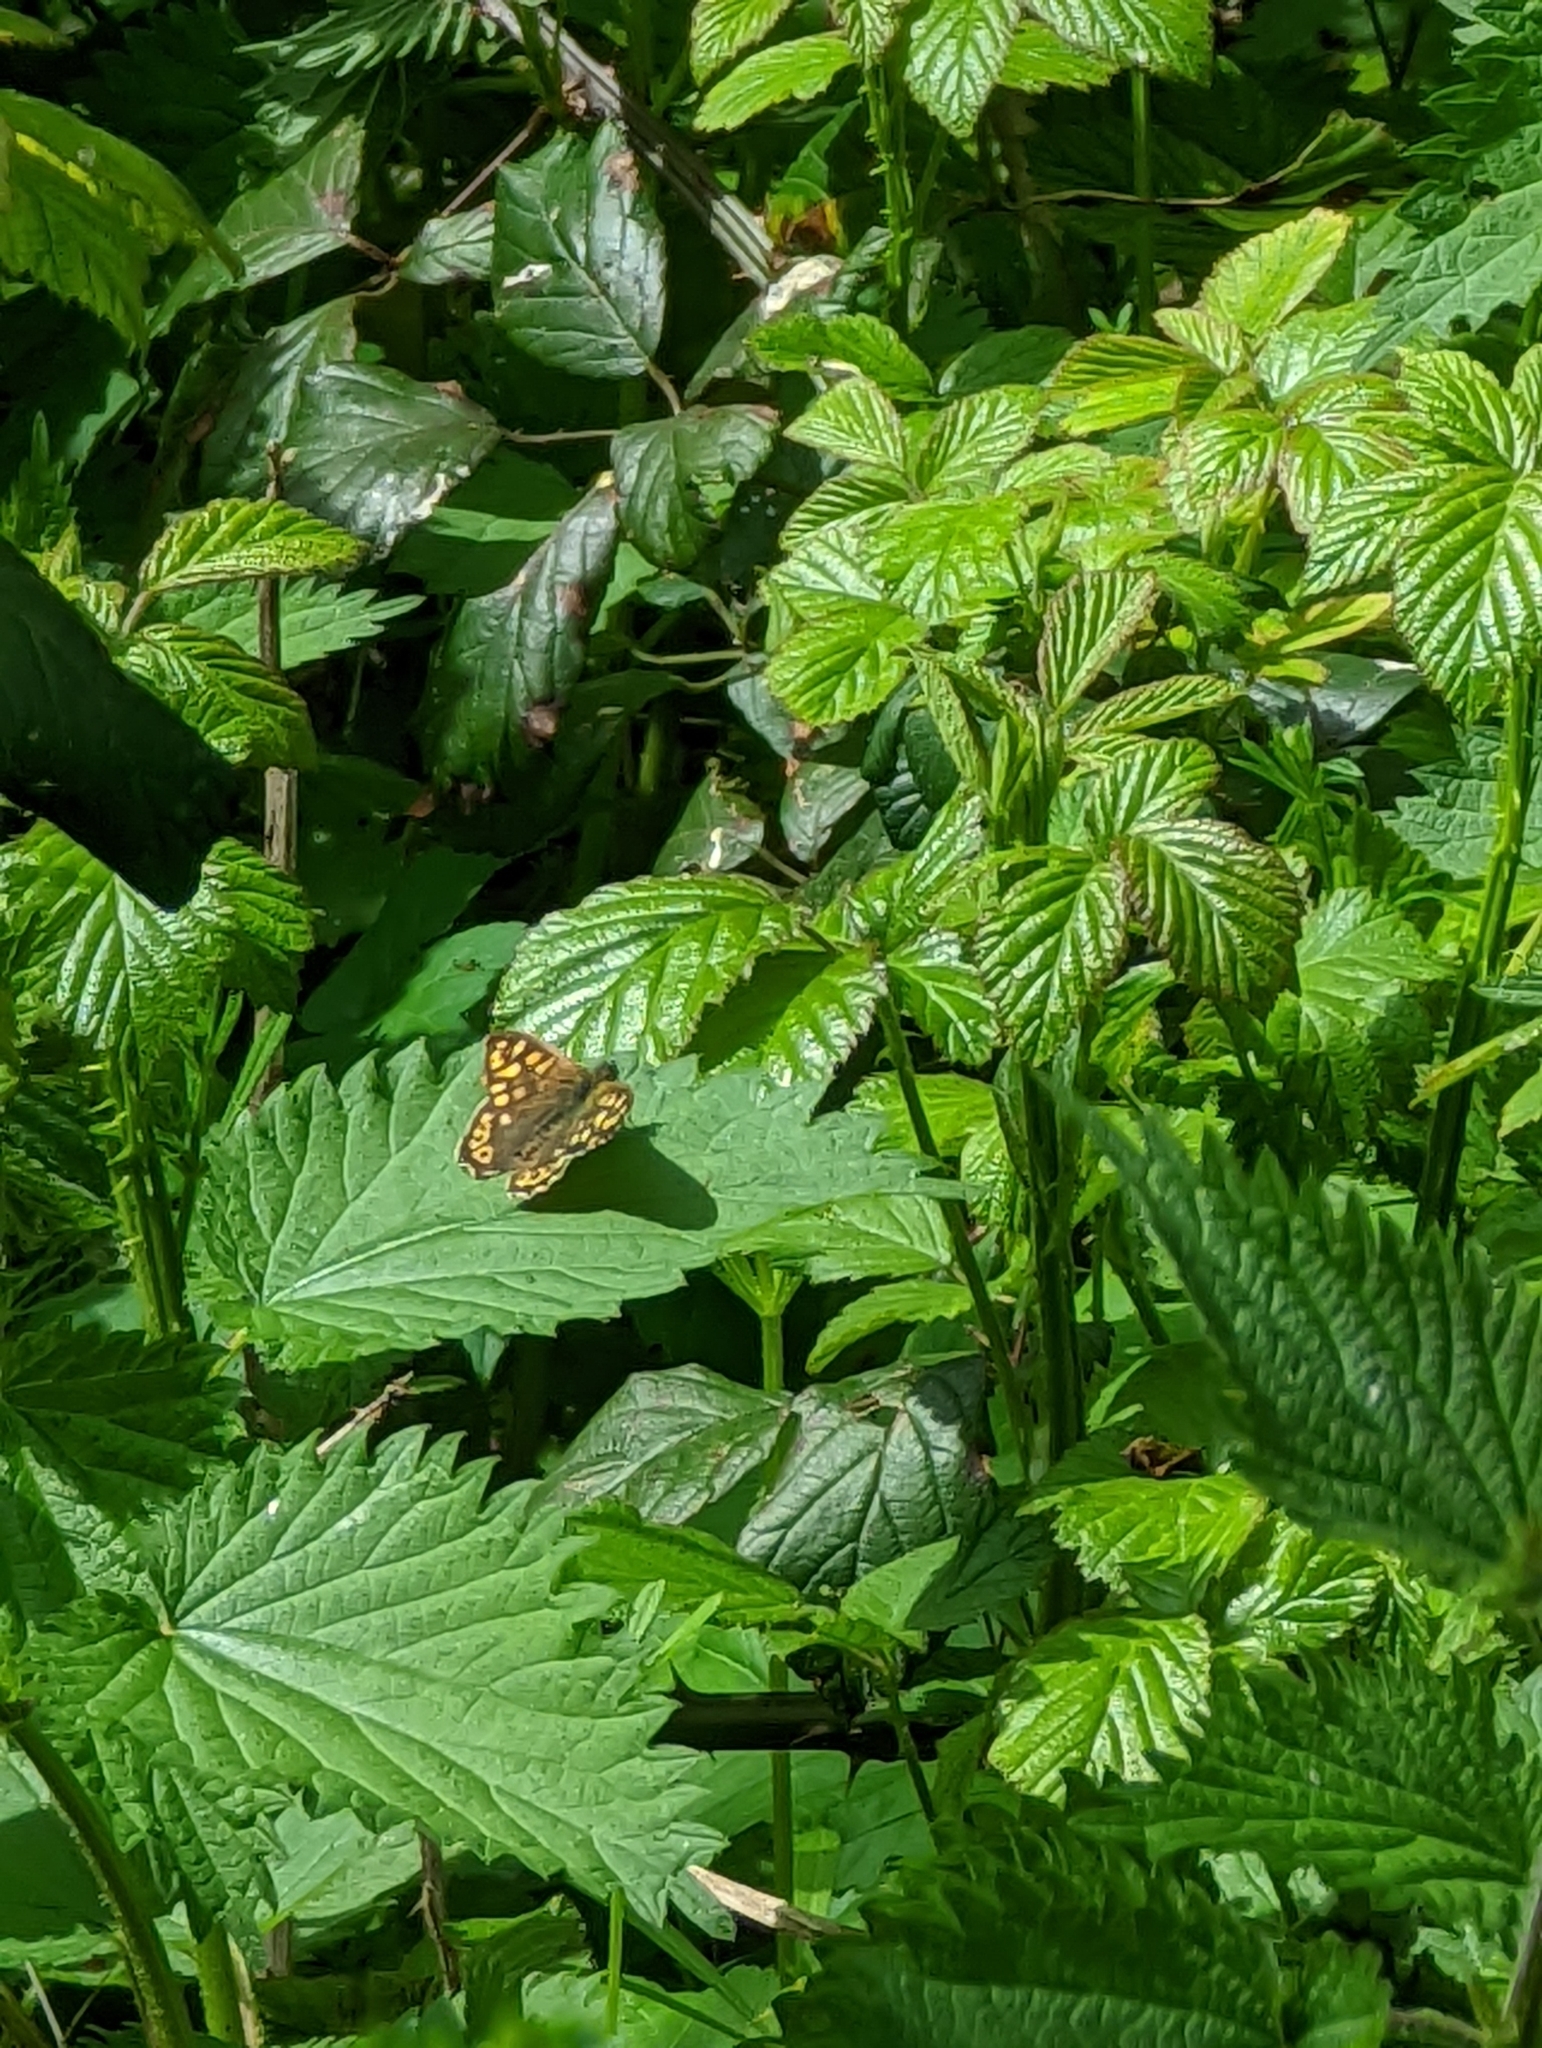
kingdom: Animalia
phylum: Arthropoda
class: Insecta
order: Lepidoptera
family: Nymphalidae
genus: Pararge
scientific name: Pararge aegeria
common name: Speckled wood
